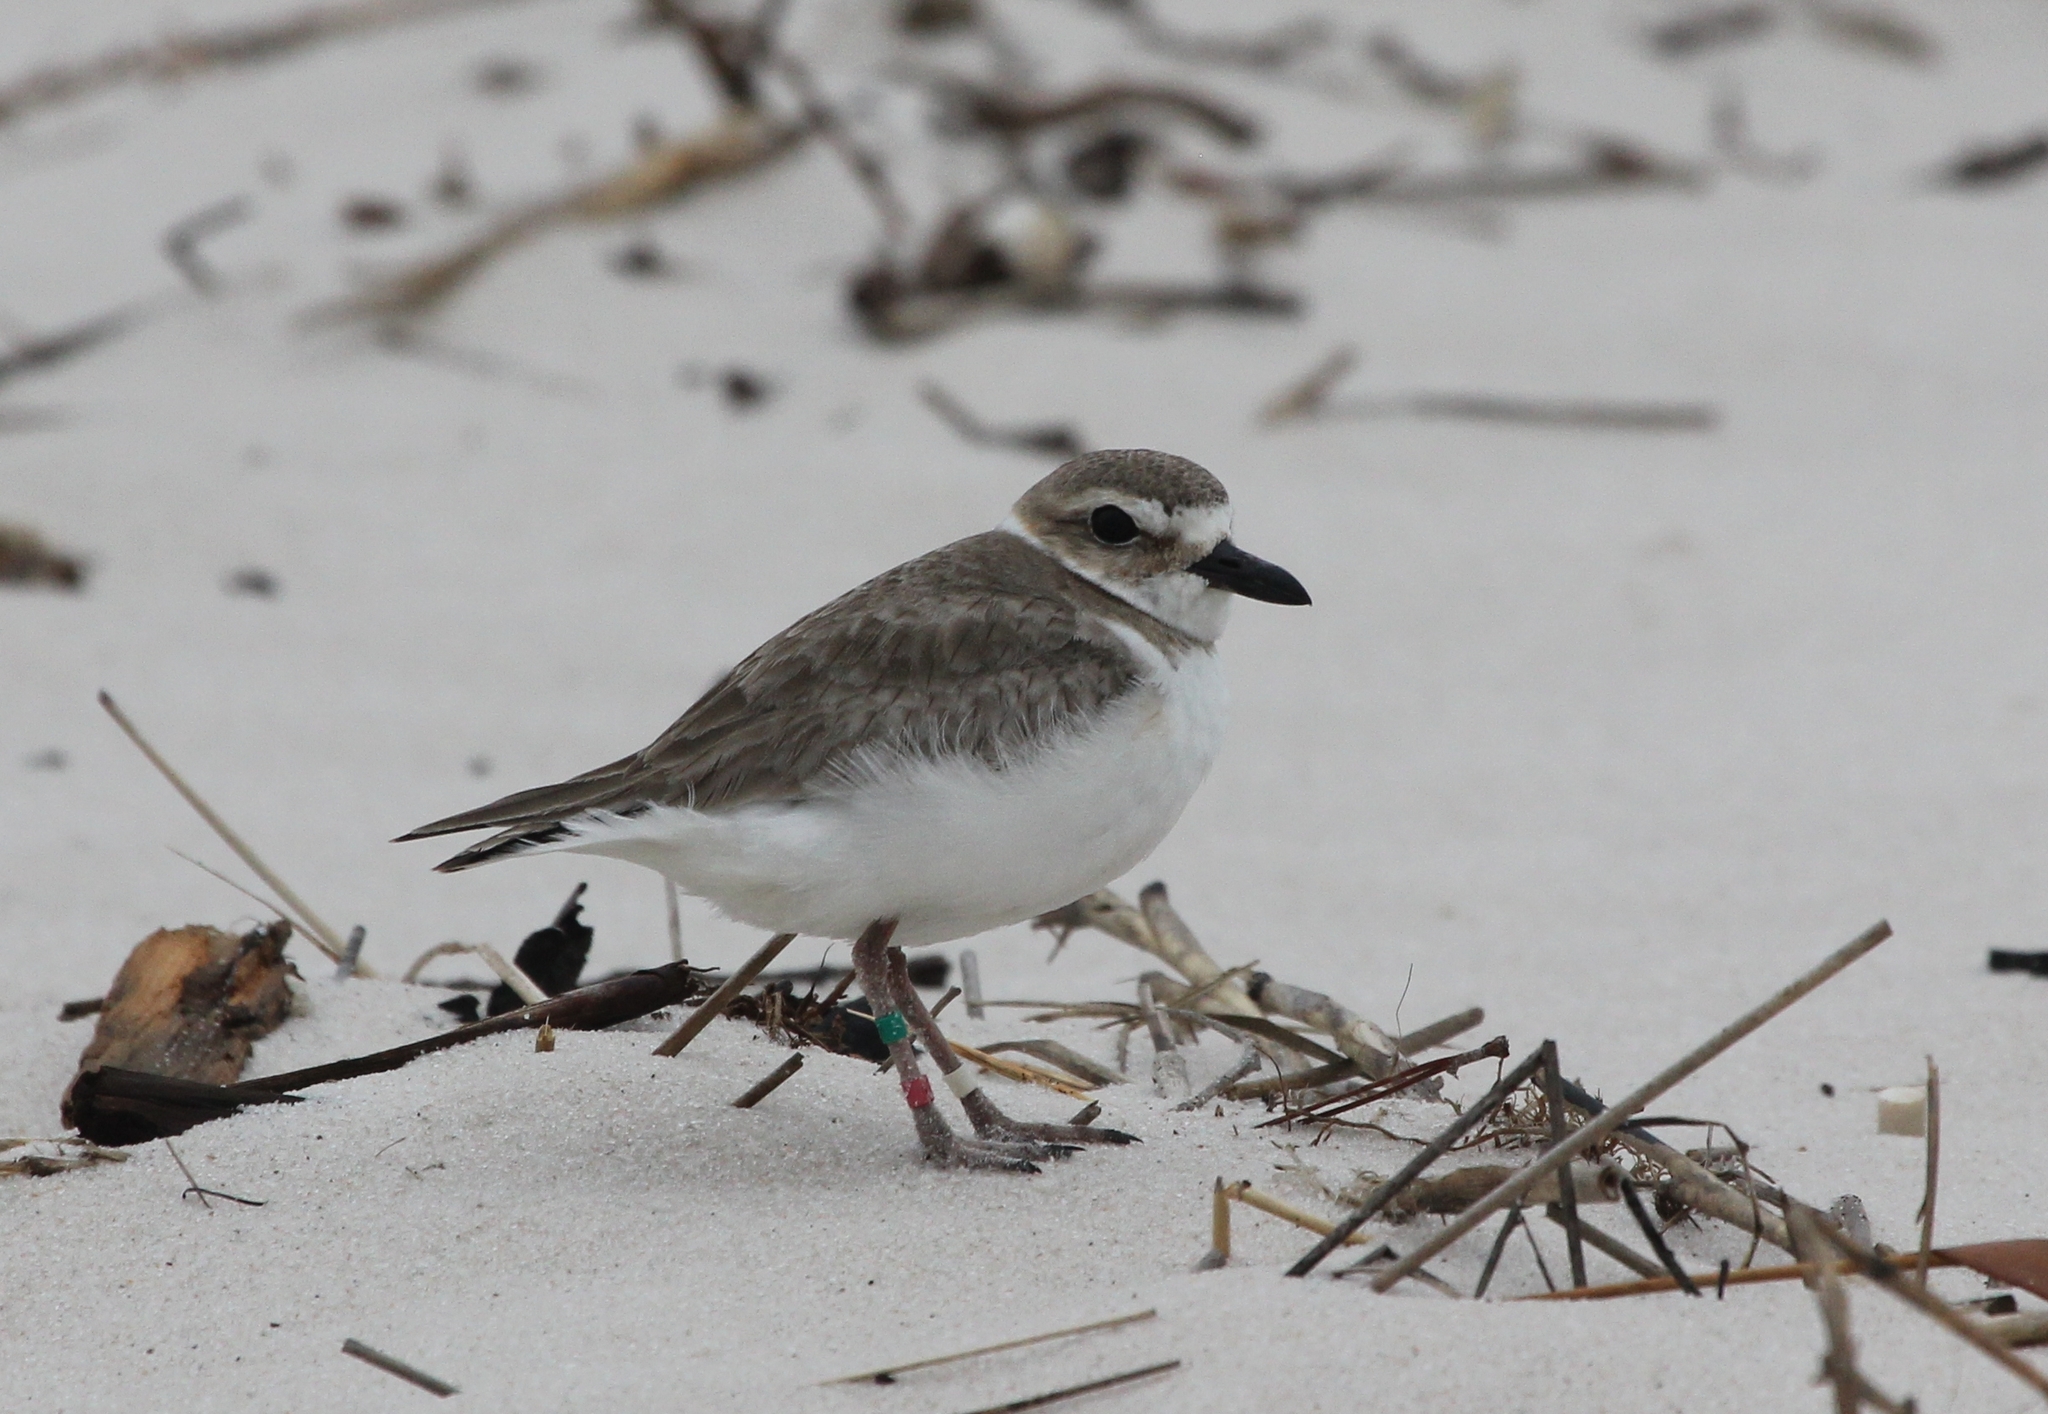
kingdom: Animalia
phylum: Chordata
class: Aves
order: Charadriiformes
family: Charadriidae
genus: Anarhynchus
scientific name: Anarhynchus
